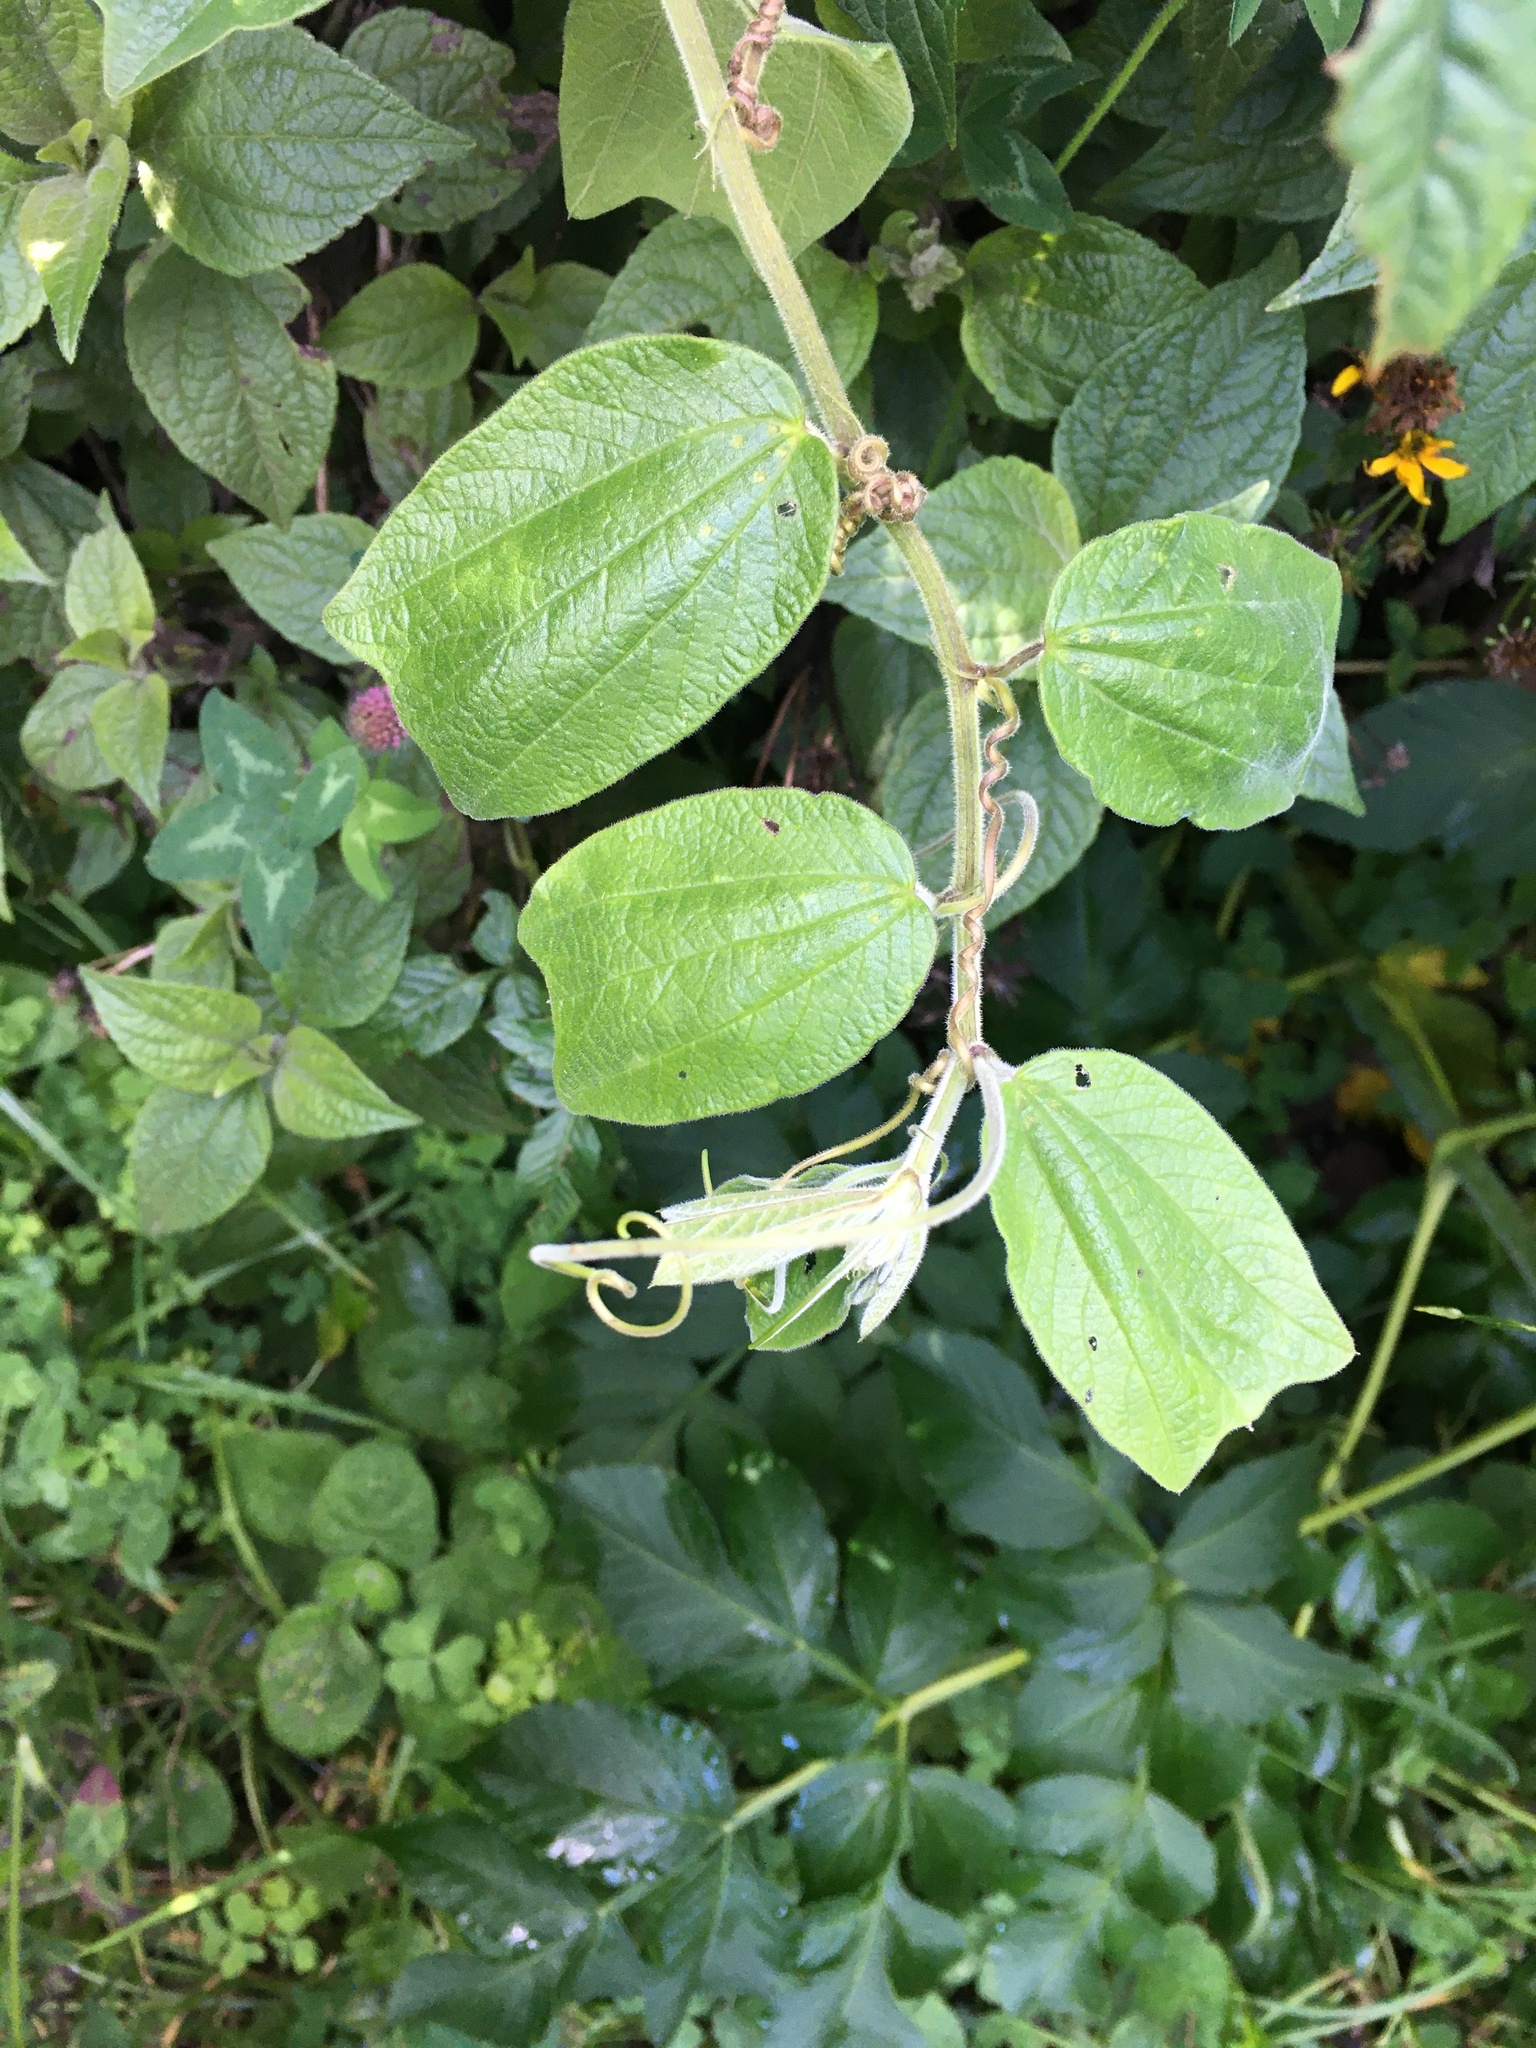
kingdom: Plantae
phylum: Tracheophyta
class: Magnoliopsida
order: Malpighiales
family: Passifloraceae
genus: Passiflora
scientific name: Passiflora bogotensis
